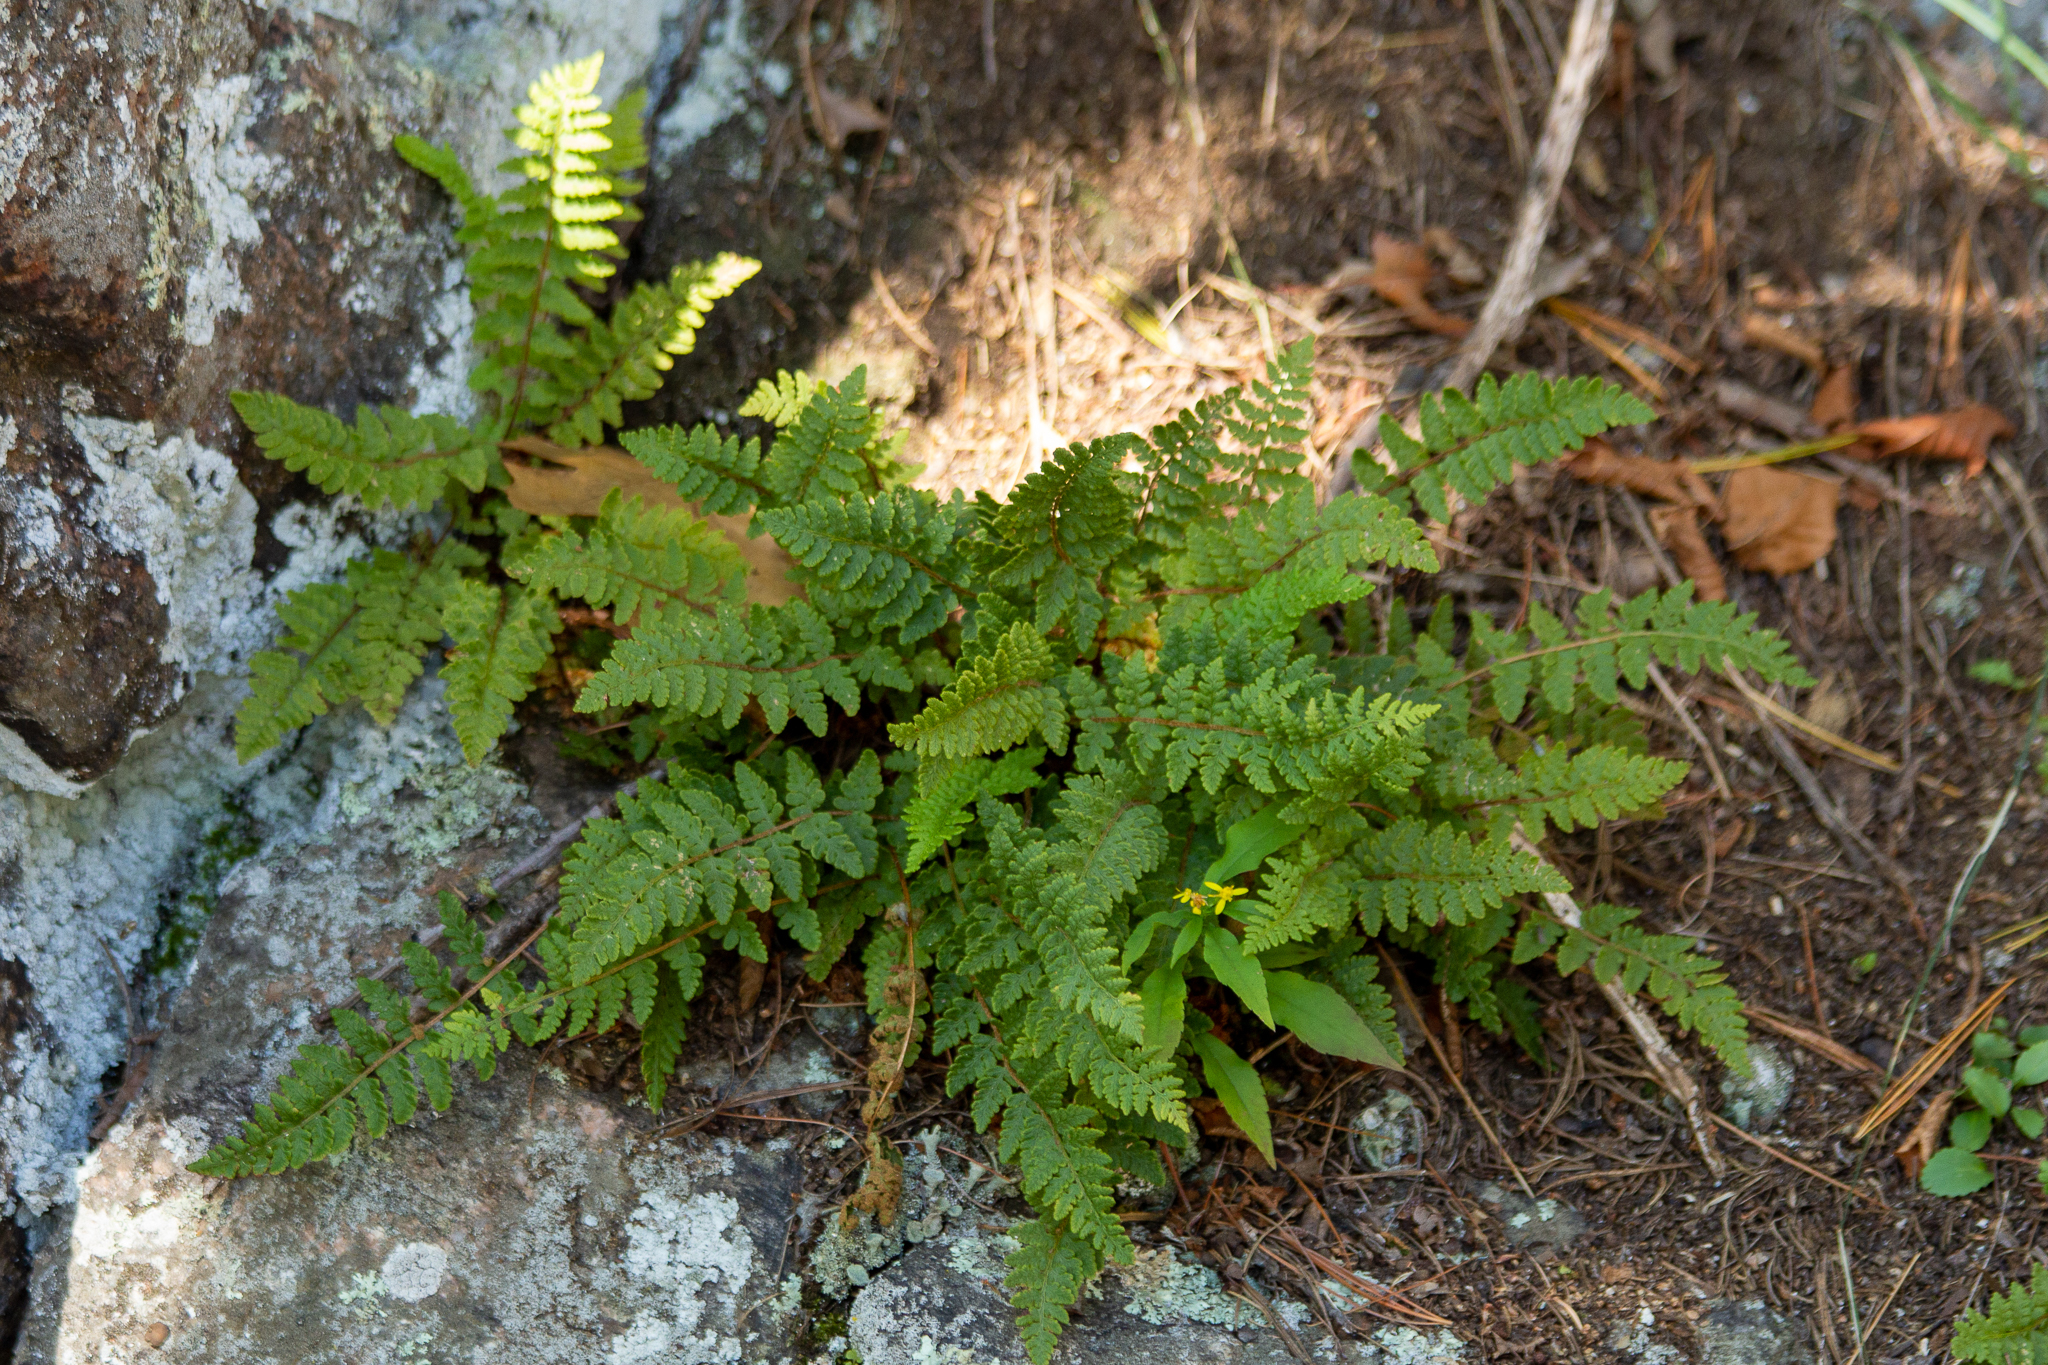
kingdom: Plantae
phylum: Tracheophyta
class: Polypodiopsida
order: Polypodiales
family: Woodsiaceae
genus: Woodsia
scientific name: Woodsia ilvensis
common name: Fragrant woodsia
